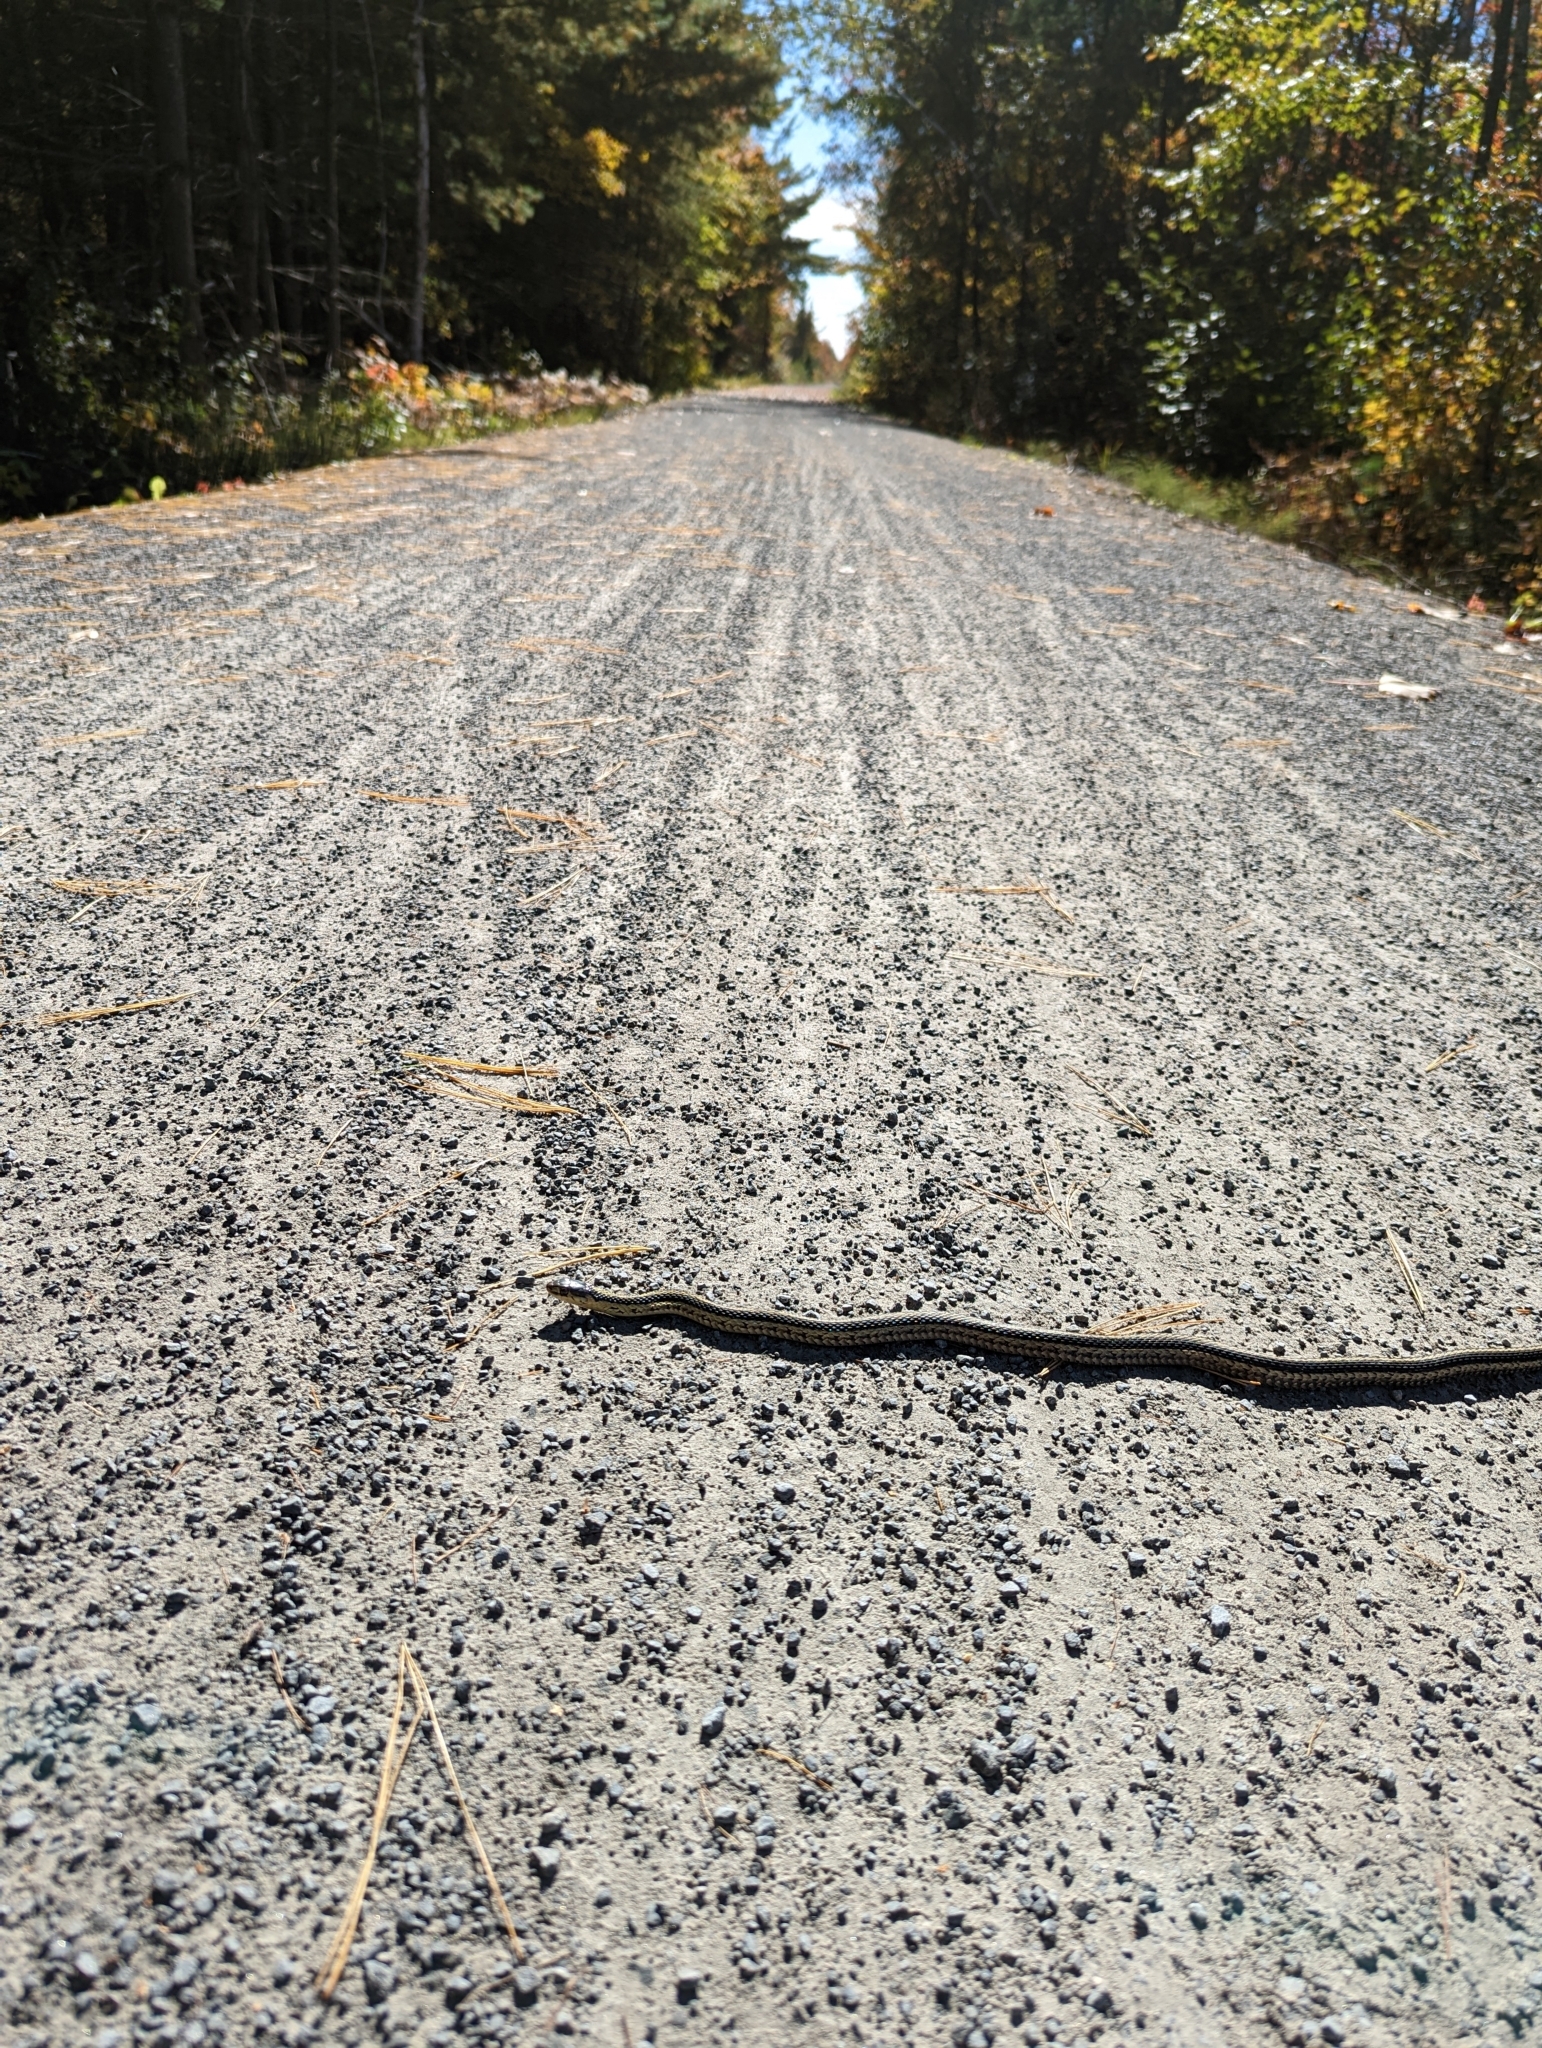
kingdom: Animalia
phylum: Chordata
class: Squamata
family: Colubridae
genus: Thamnophis
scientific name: Thamnophis sirtalis
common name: Common garter snake
